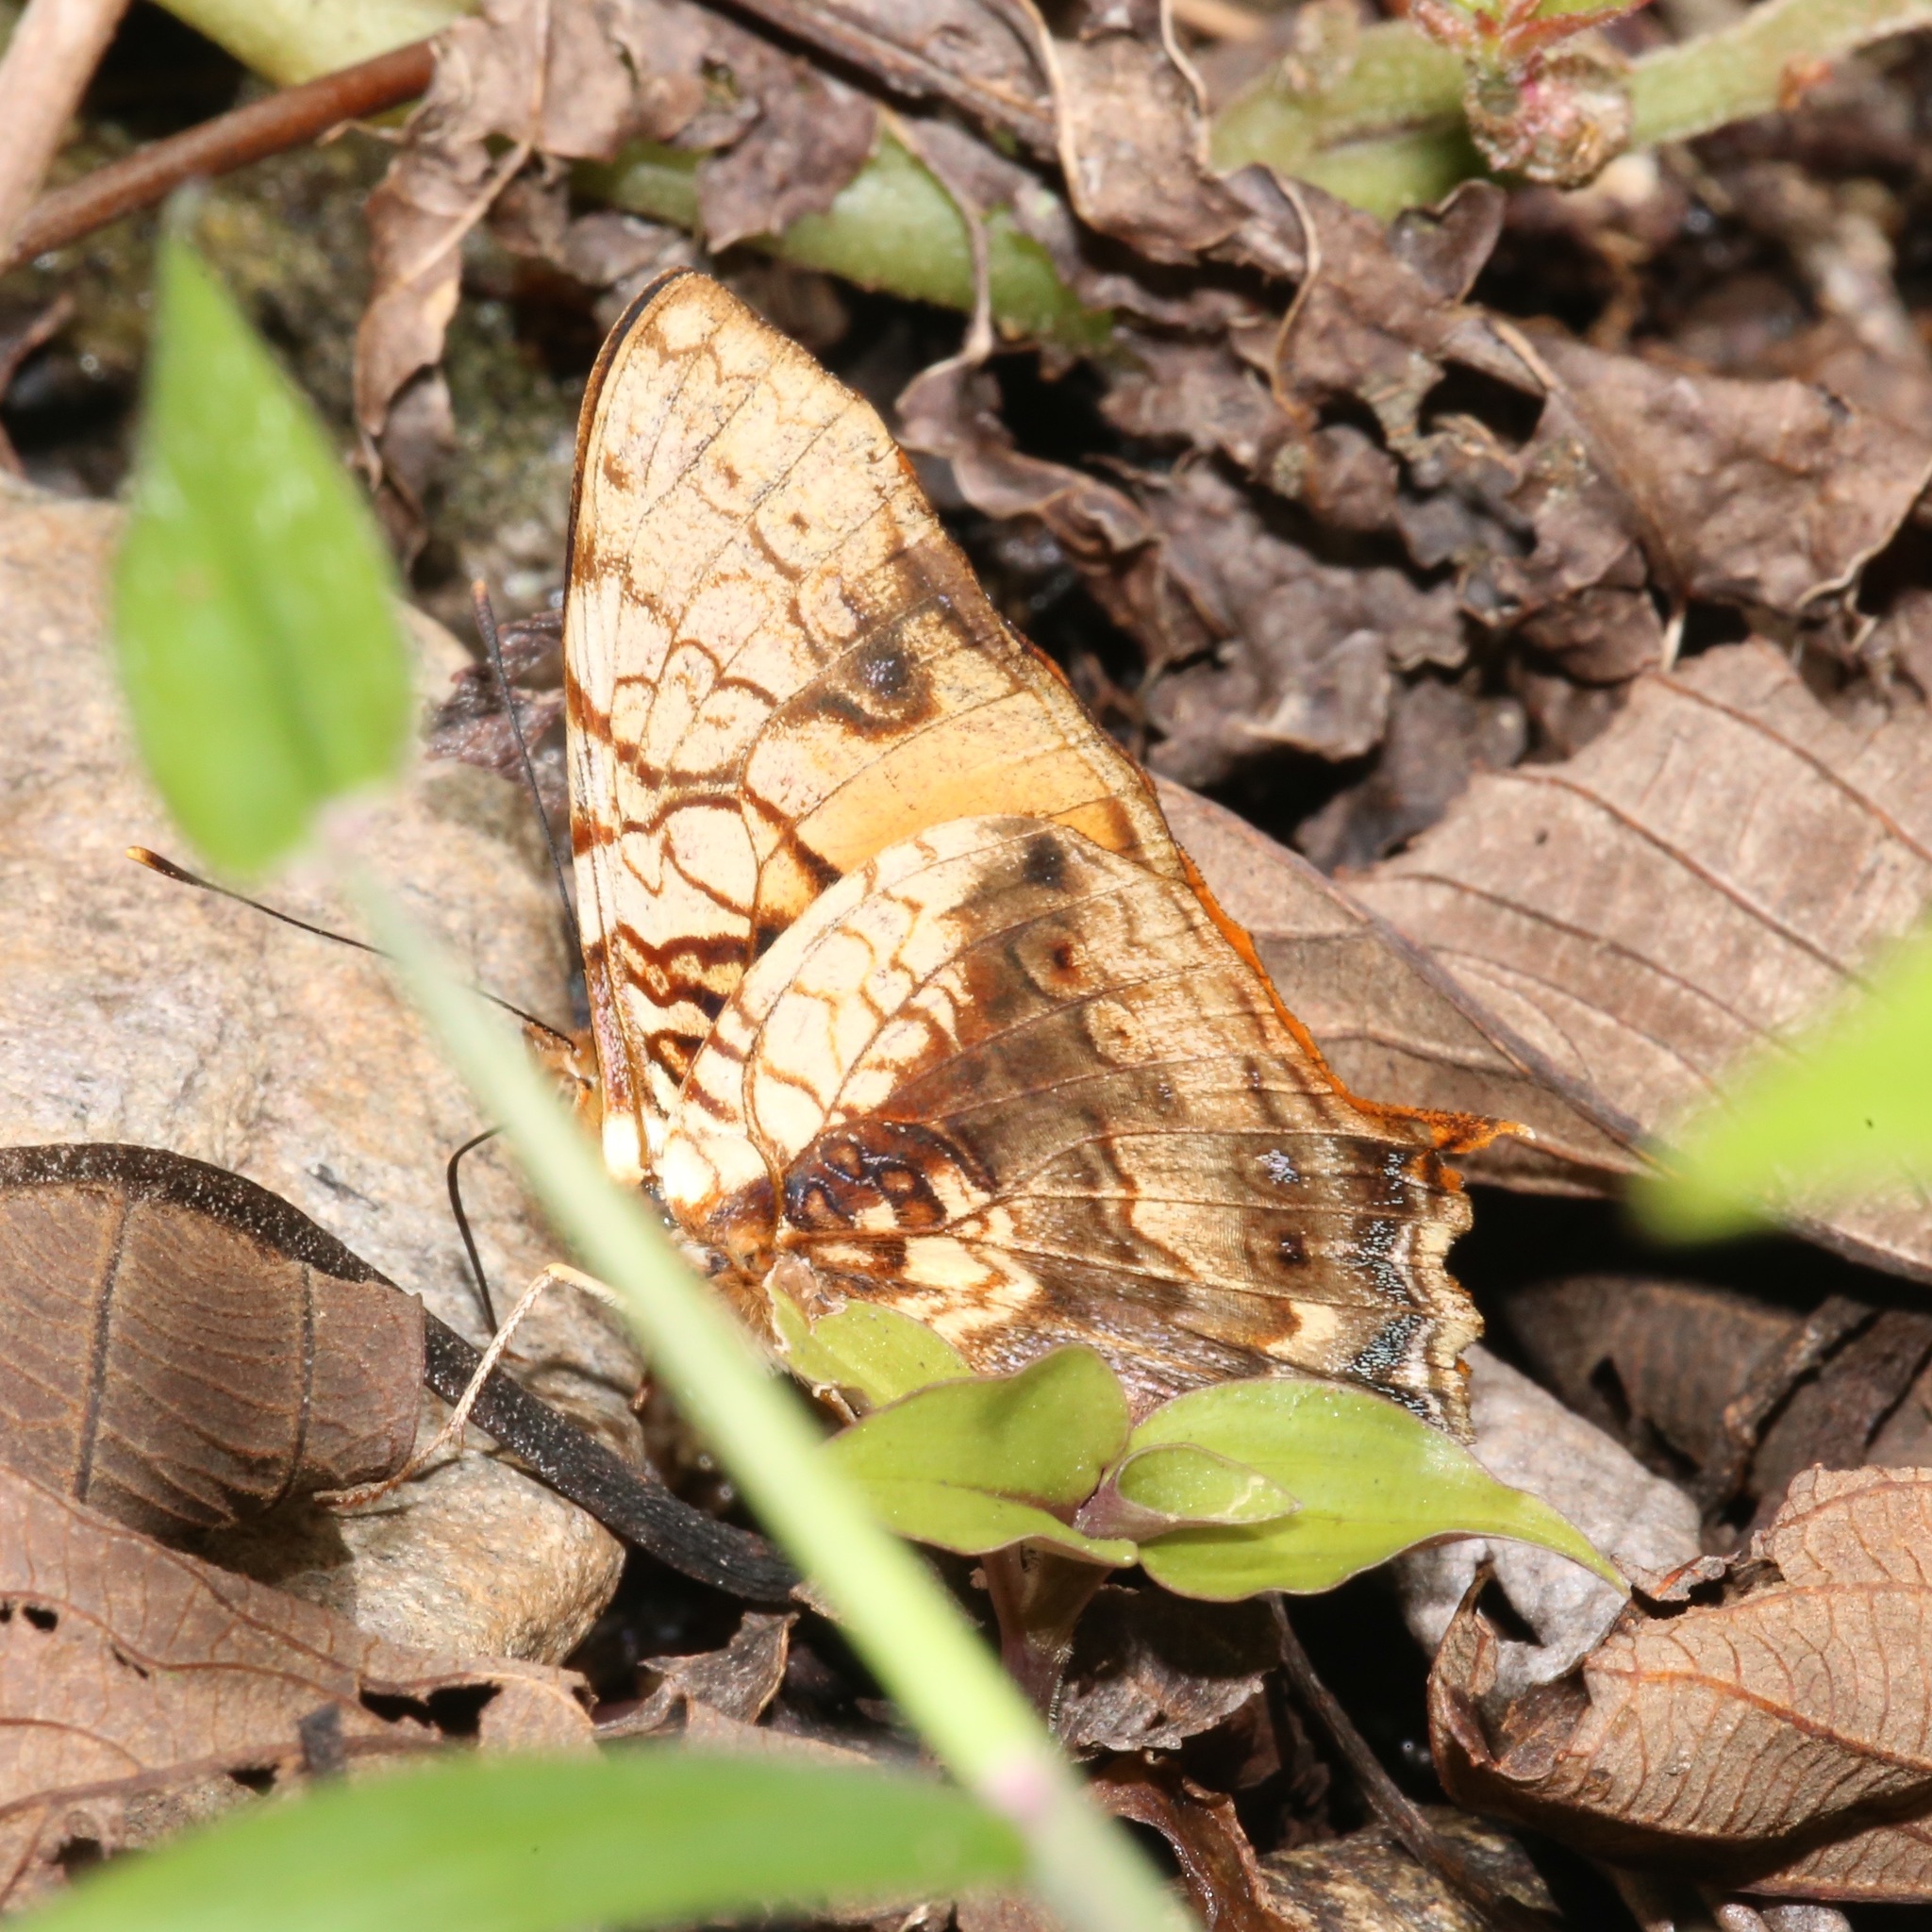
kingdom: Animalia
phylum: Arthropoda
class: Insecta
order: Lepidoptera
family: Nymphalidae
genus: Hypanartia
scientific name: Hypanartia lethe
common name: Orange mapwing
